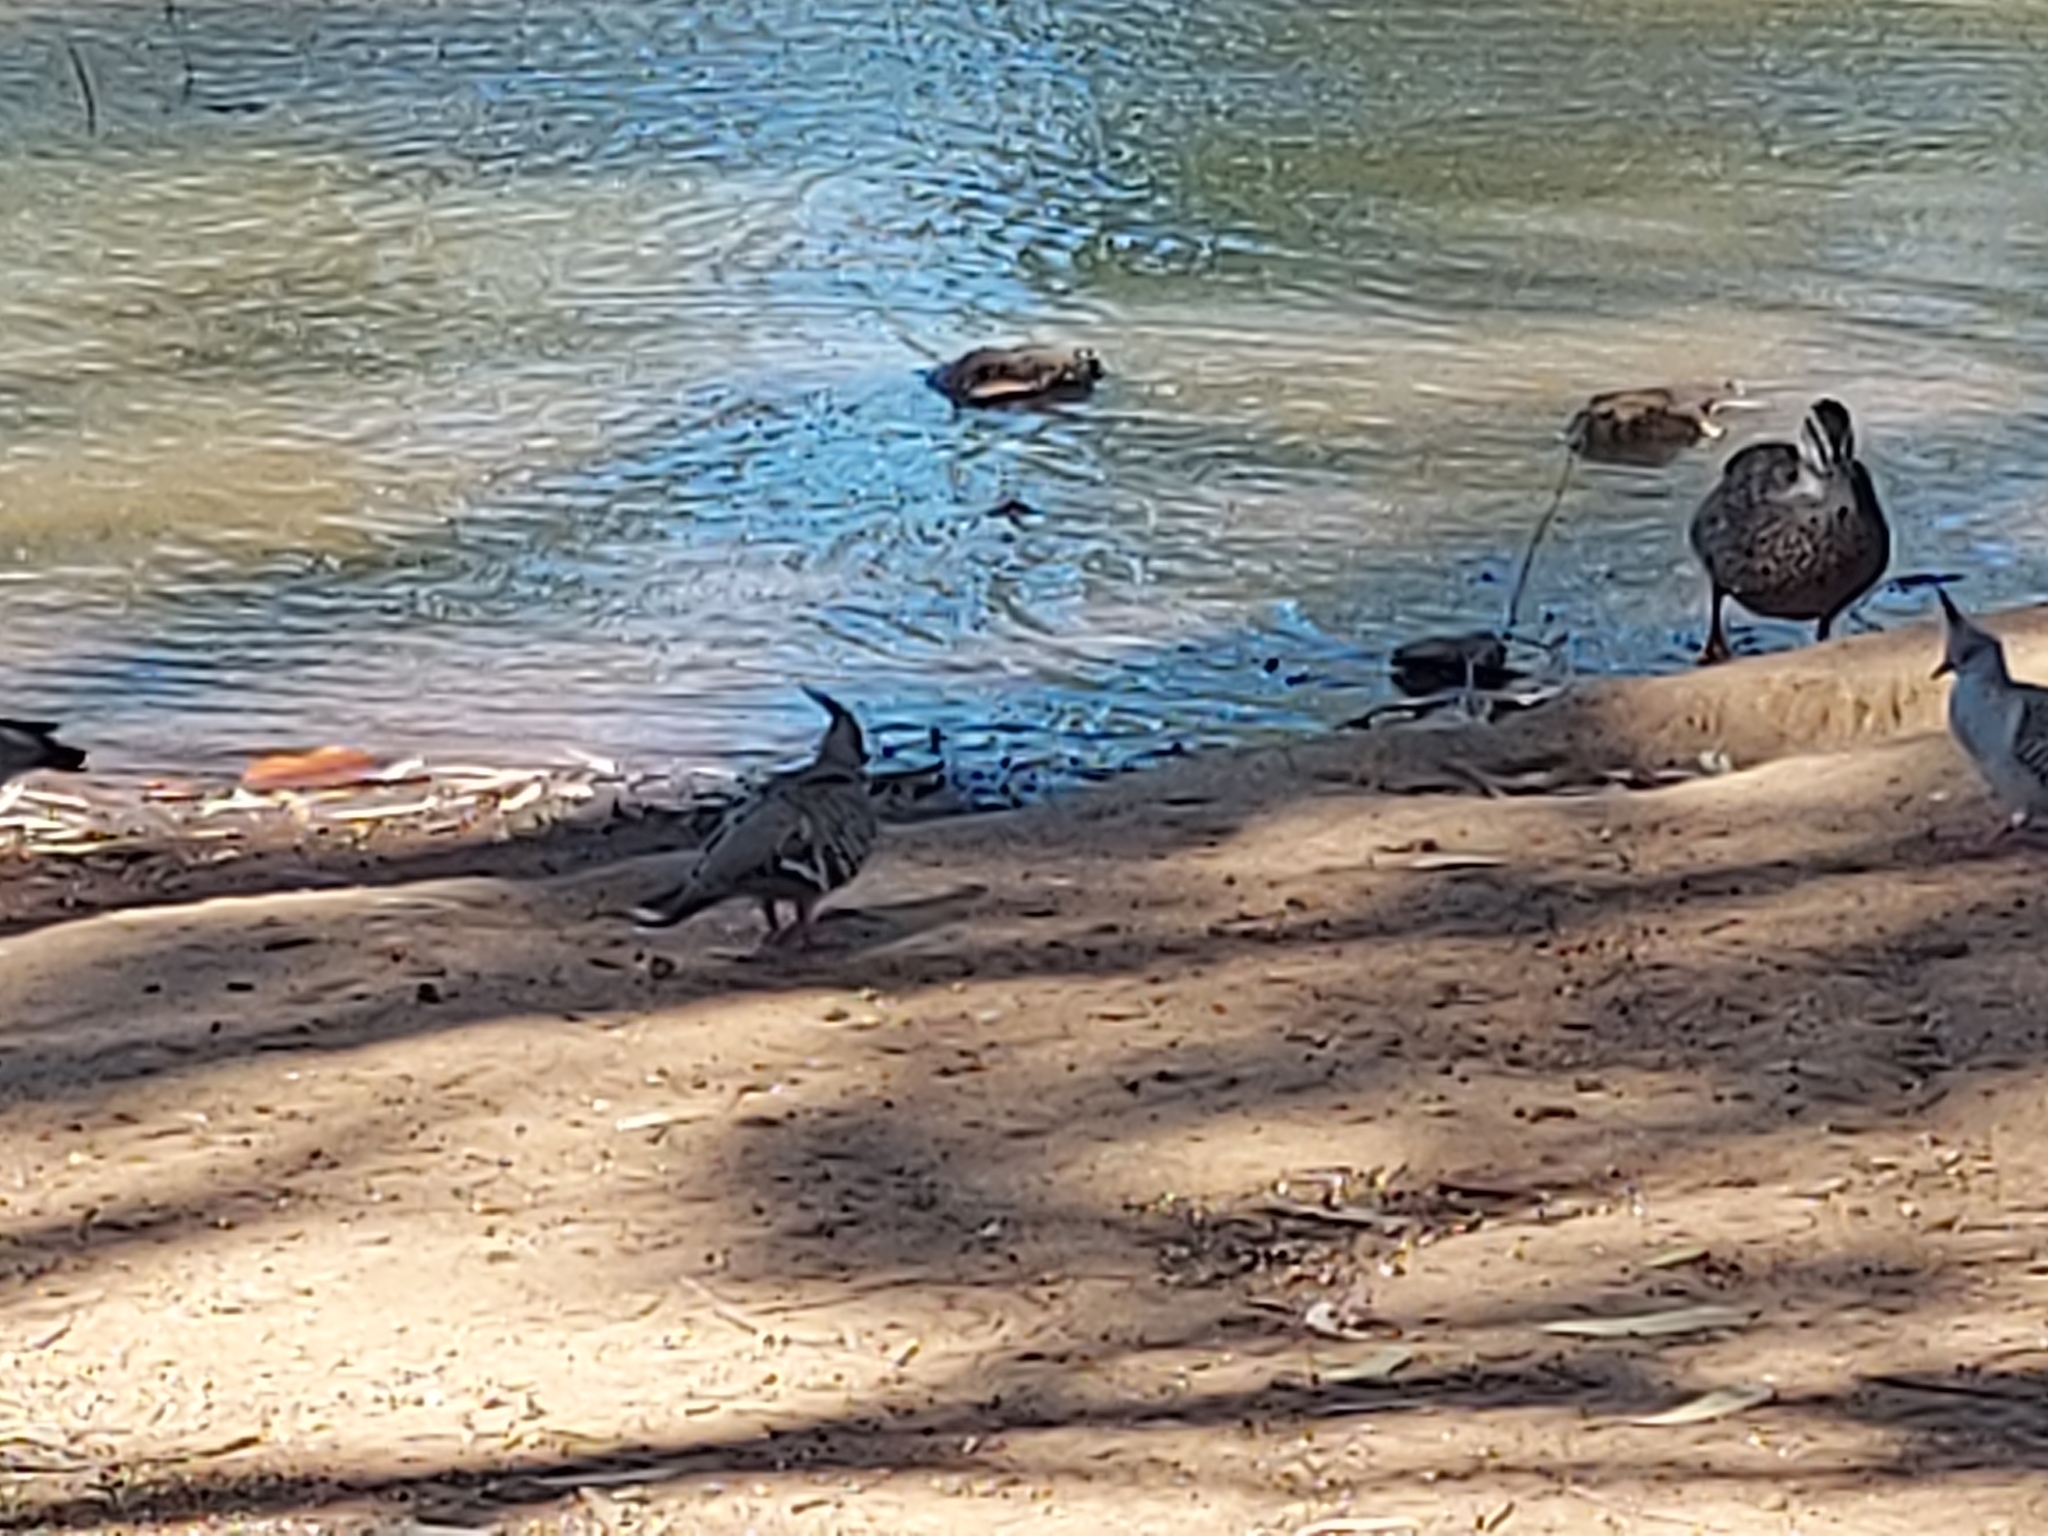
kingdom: Animalia
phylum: Chordata
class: Aves
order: Columbiformes
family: Columbidae
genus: Ocyphaps
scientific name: Ocyphaps lophotes
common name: Crested pigeon
